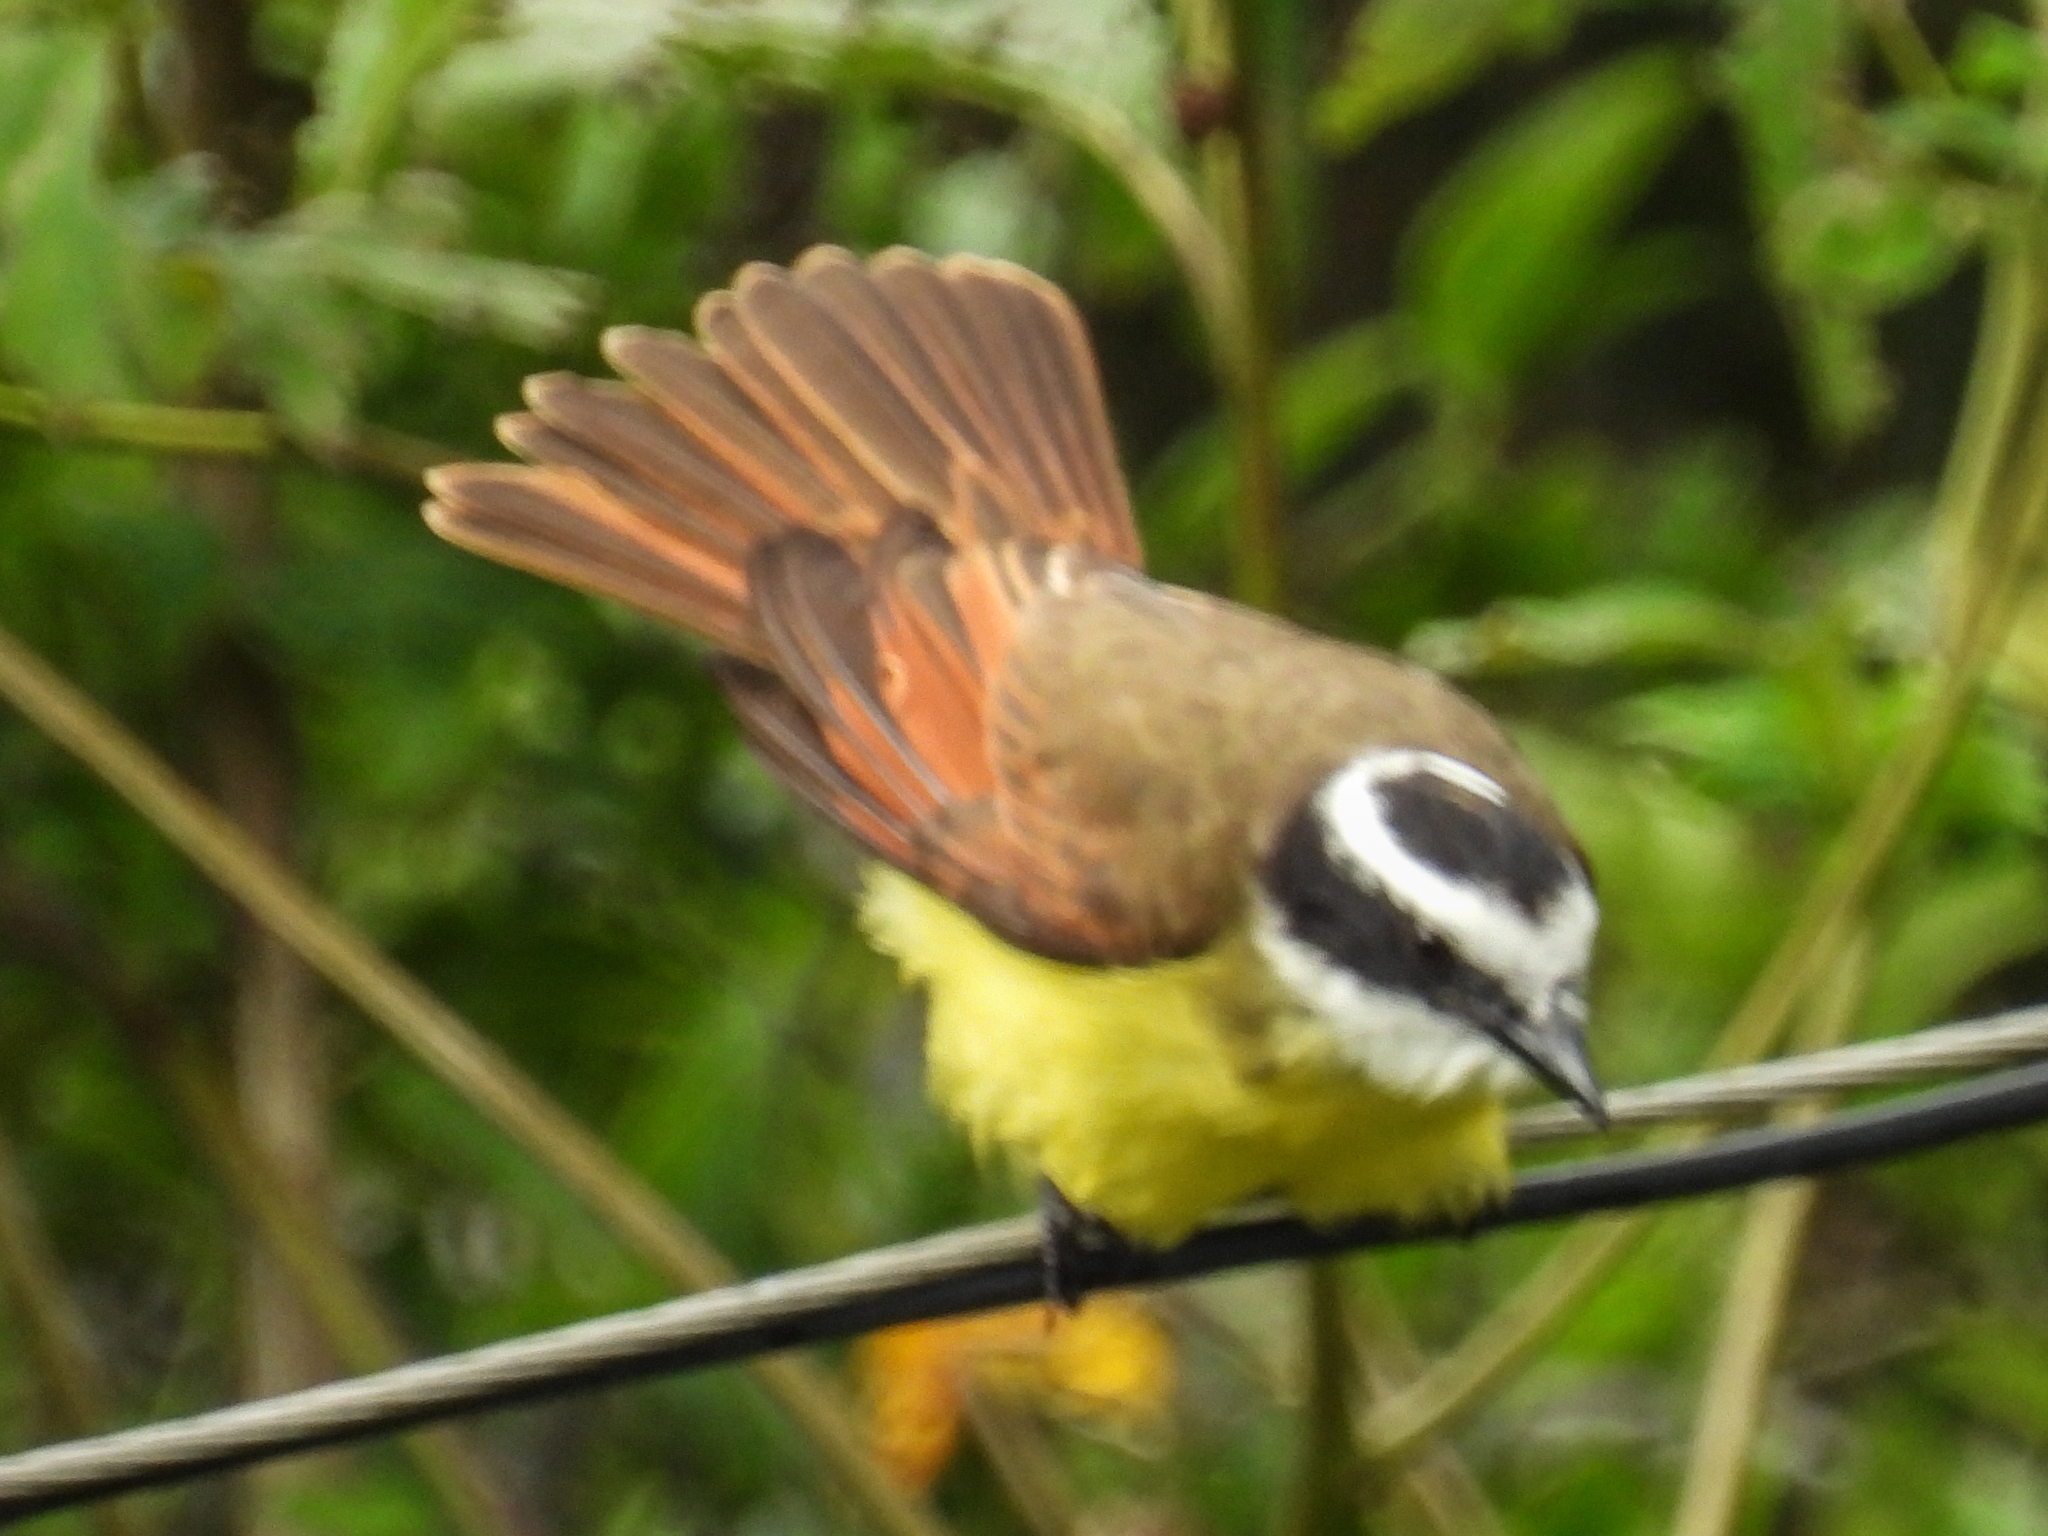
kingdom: Animalia
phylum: Chordata
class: Aves
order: Passeriformes
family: Tyrannidae
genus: Pitangus
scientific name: Pitangus sulphuratus
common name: Great kiskadee
